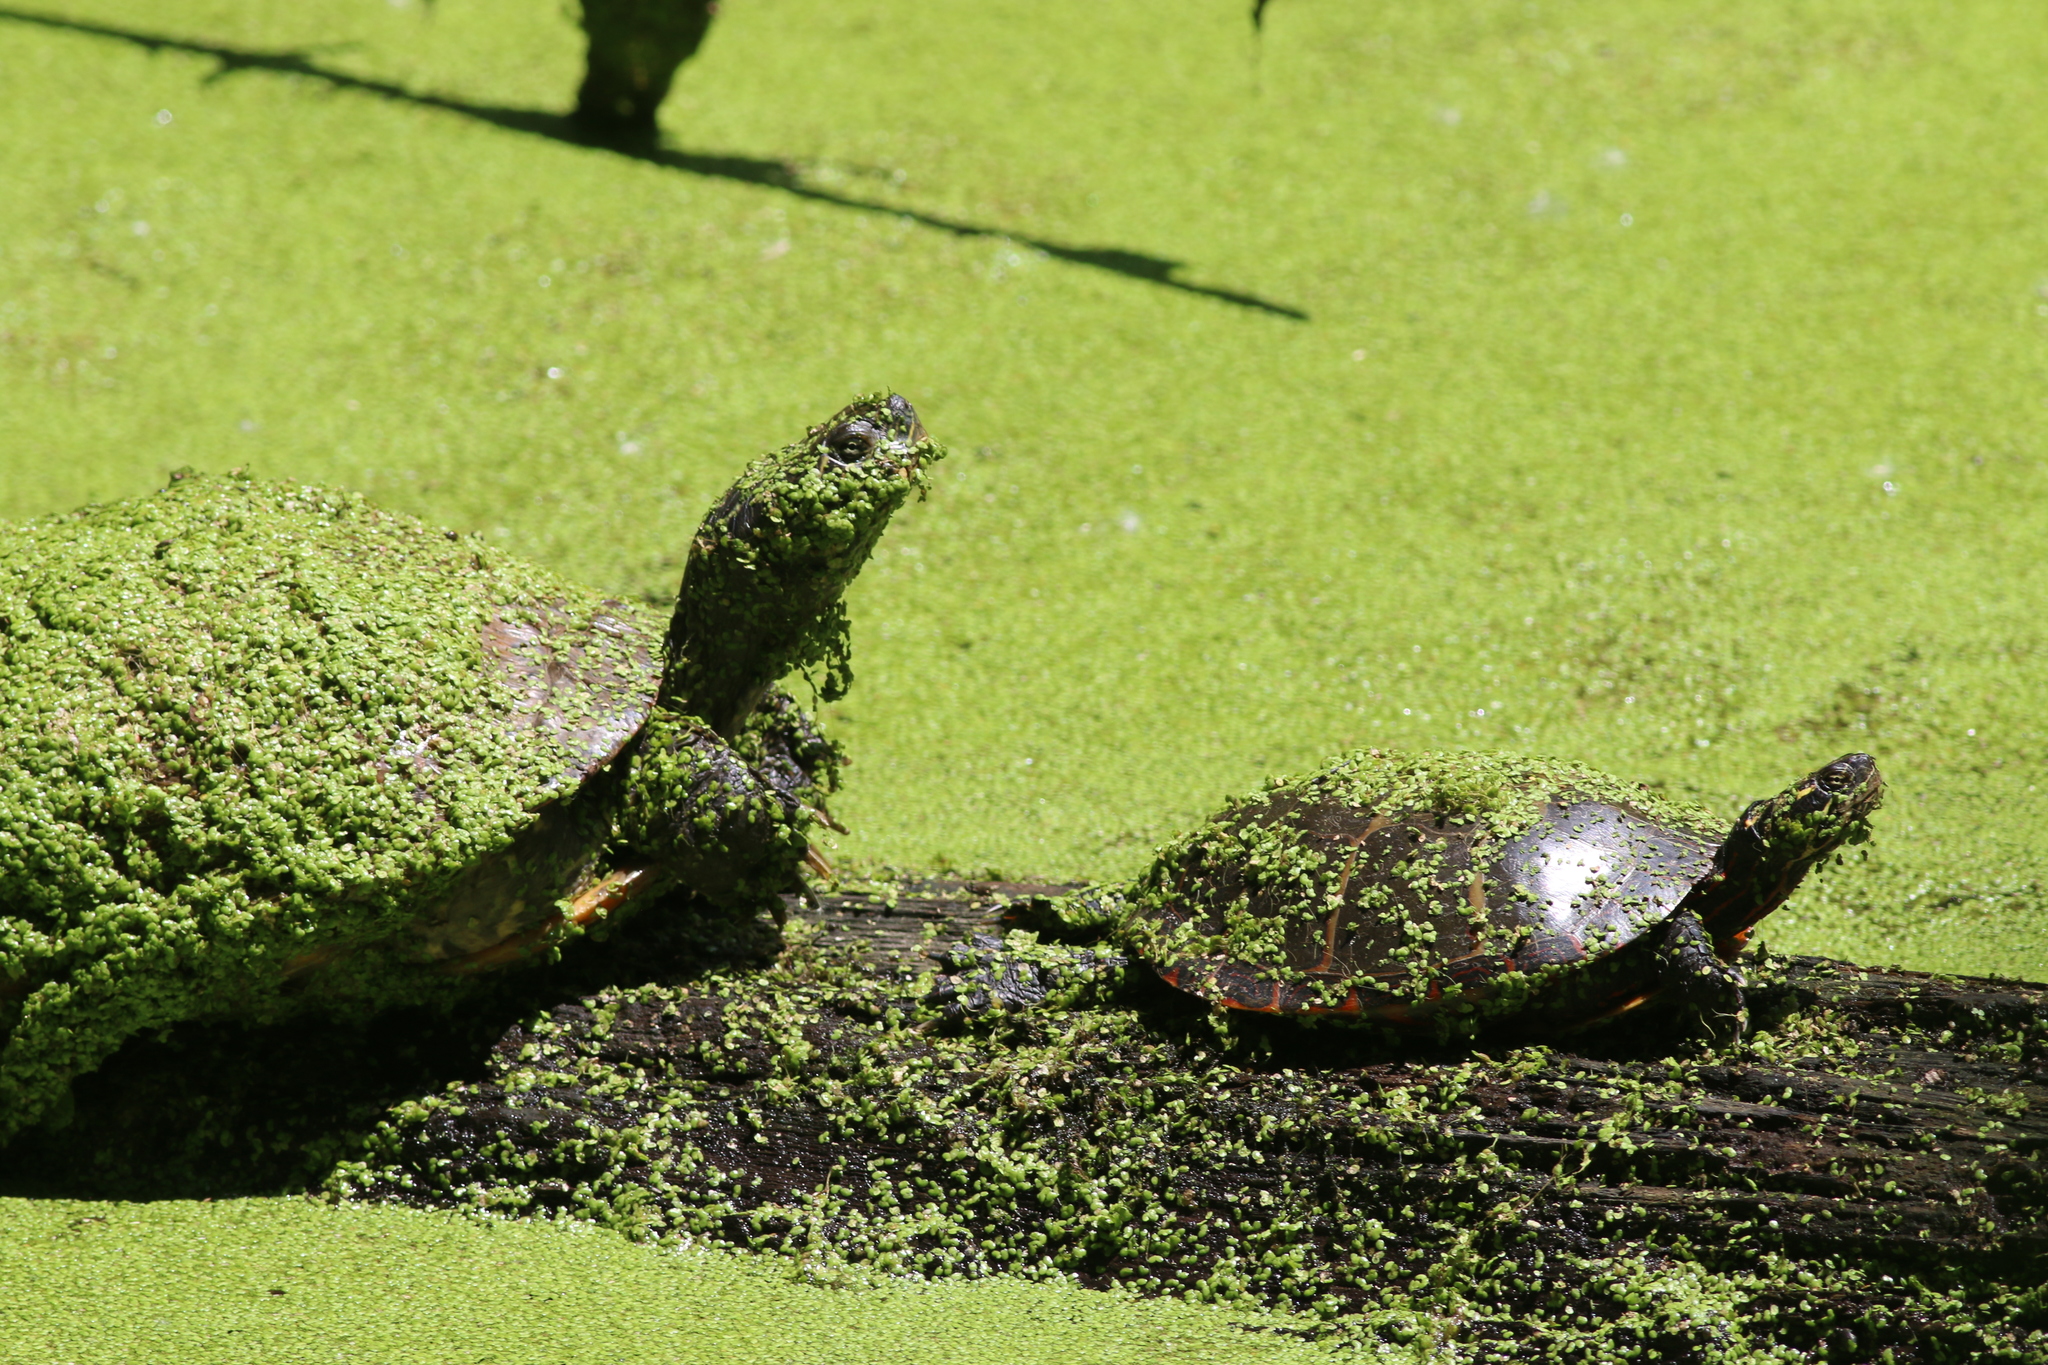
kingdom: Animalia
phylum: Chordata
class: Testudines
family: Emydidae
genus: Chrysemys
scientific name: Chrysemys picta
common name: Painted turtle
